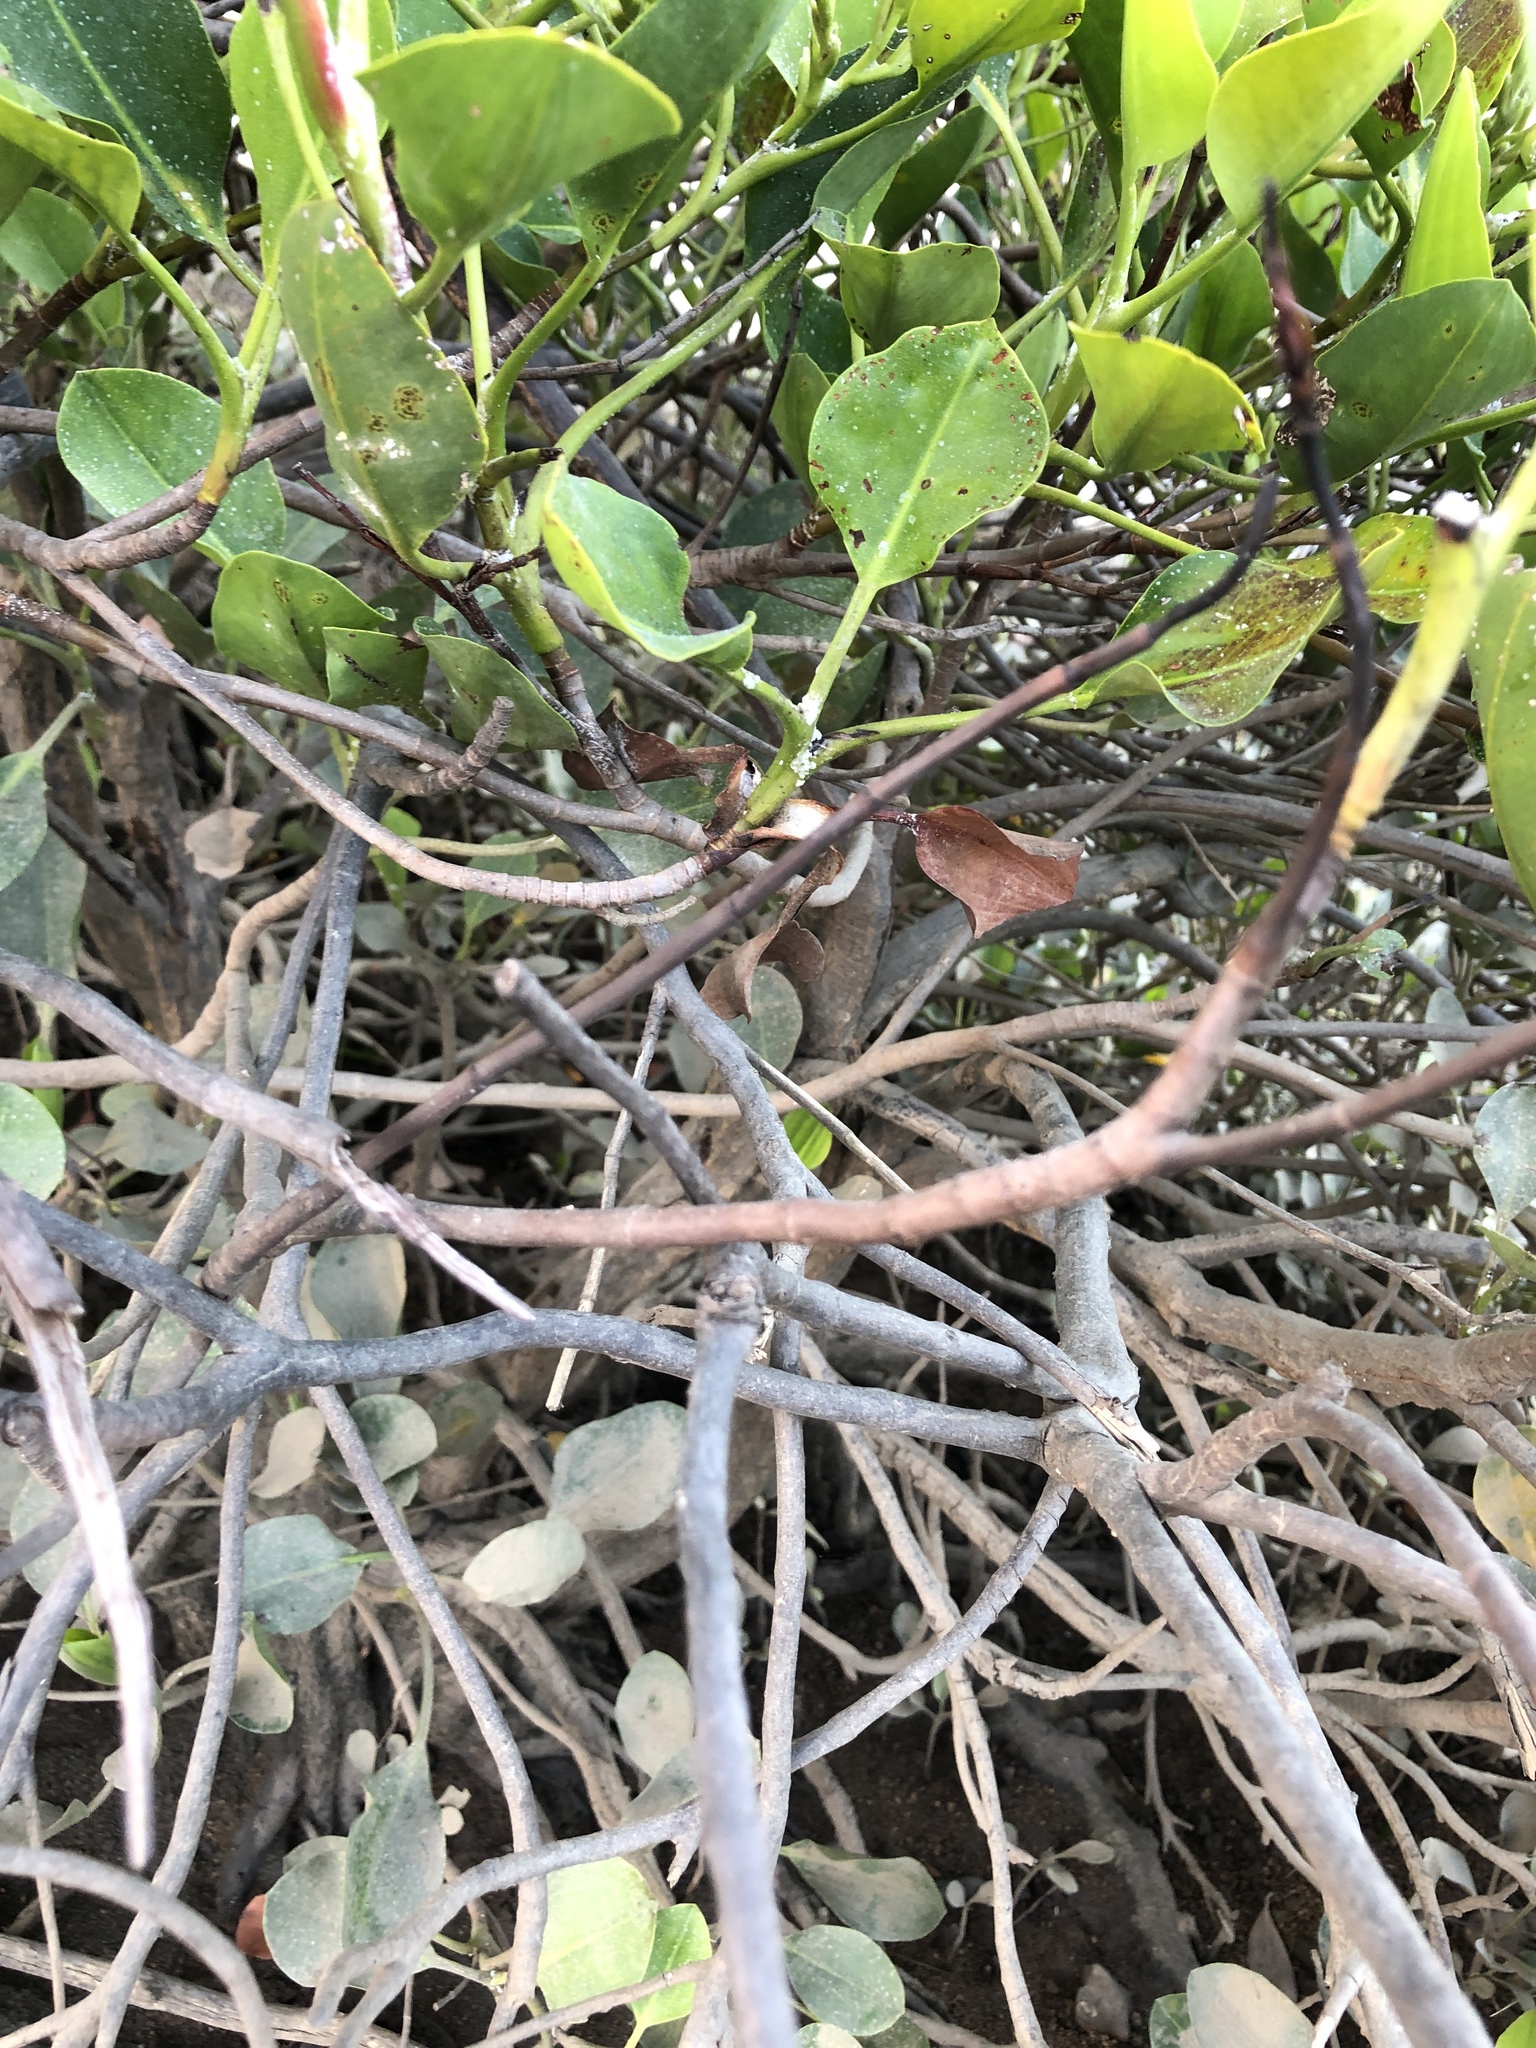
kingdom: Plantae
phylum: Tracheophyta
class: Magnoliopsida
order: Caryophyllales
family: Plumbaginaceae
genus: Aegialitis
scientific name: Aegialitis annulata
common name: Club mangrove
